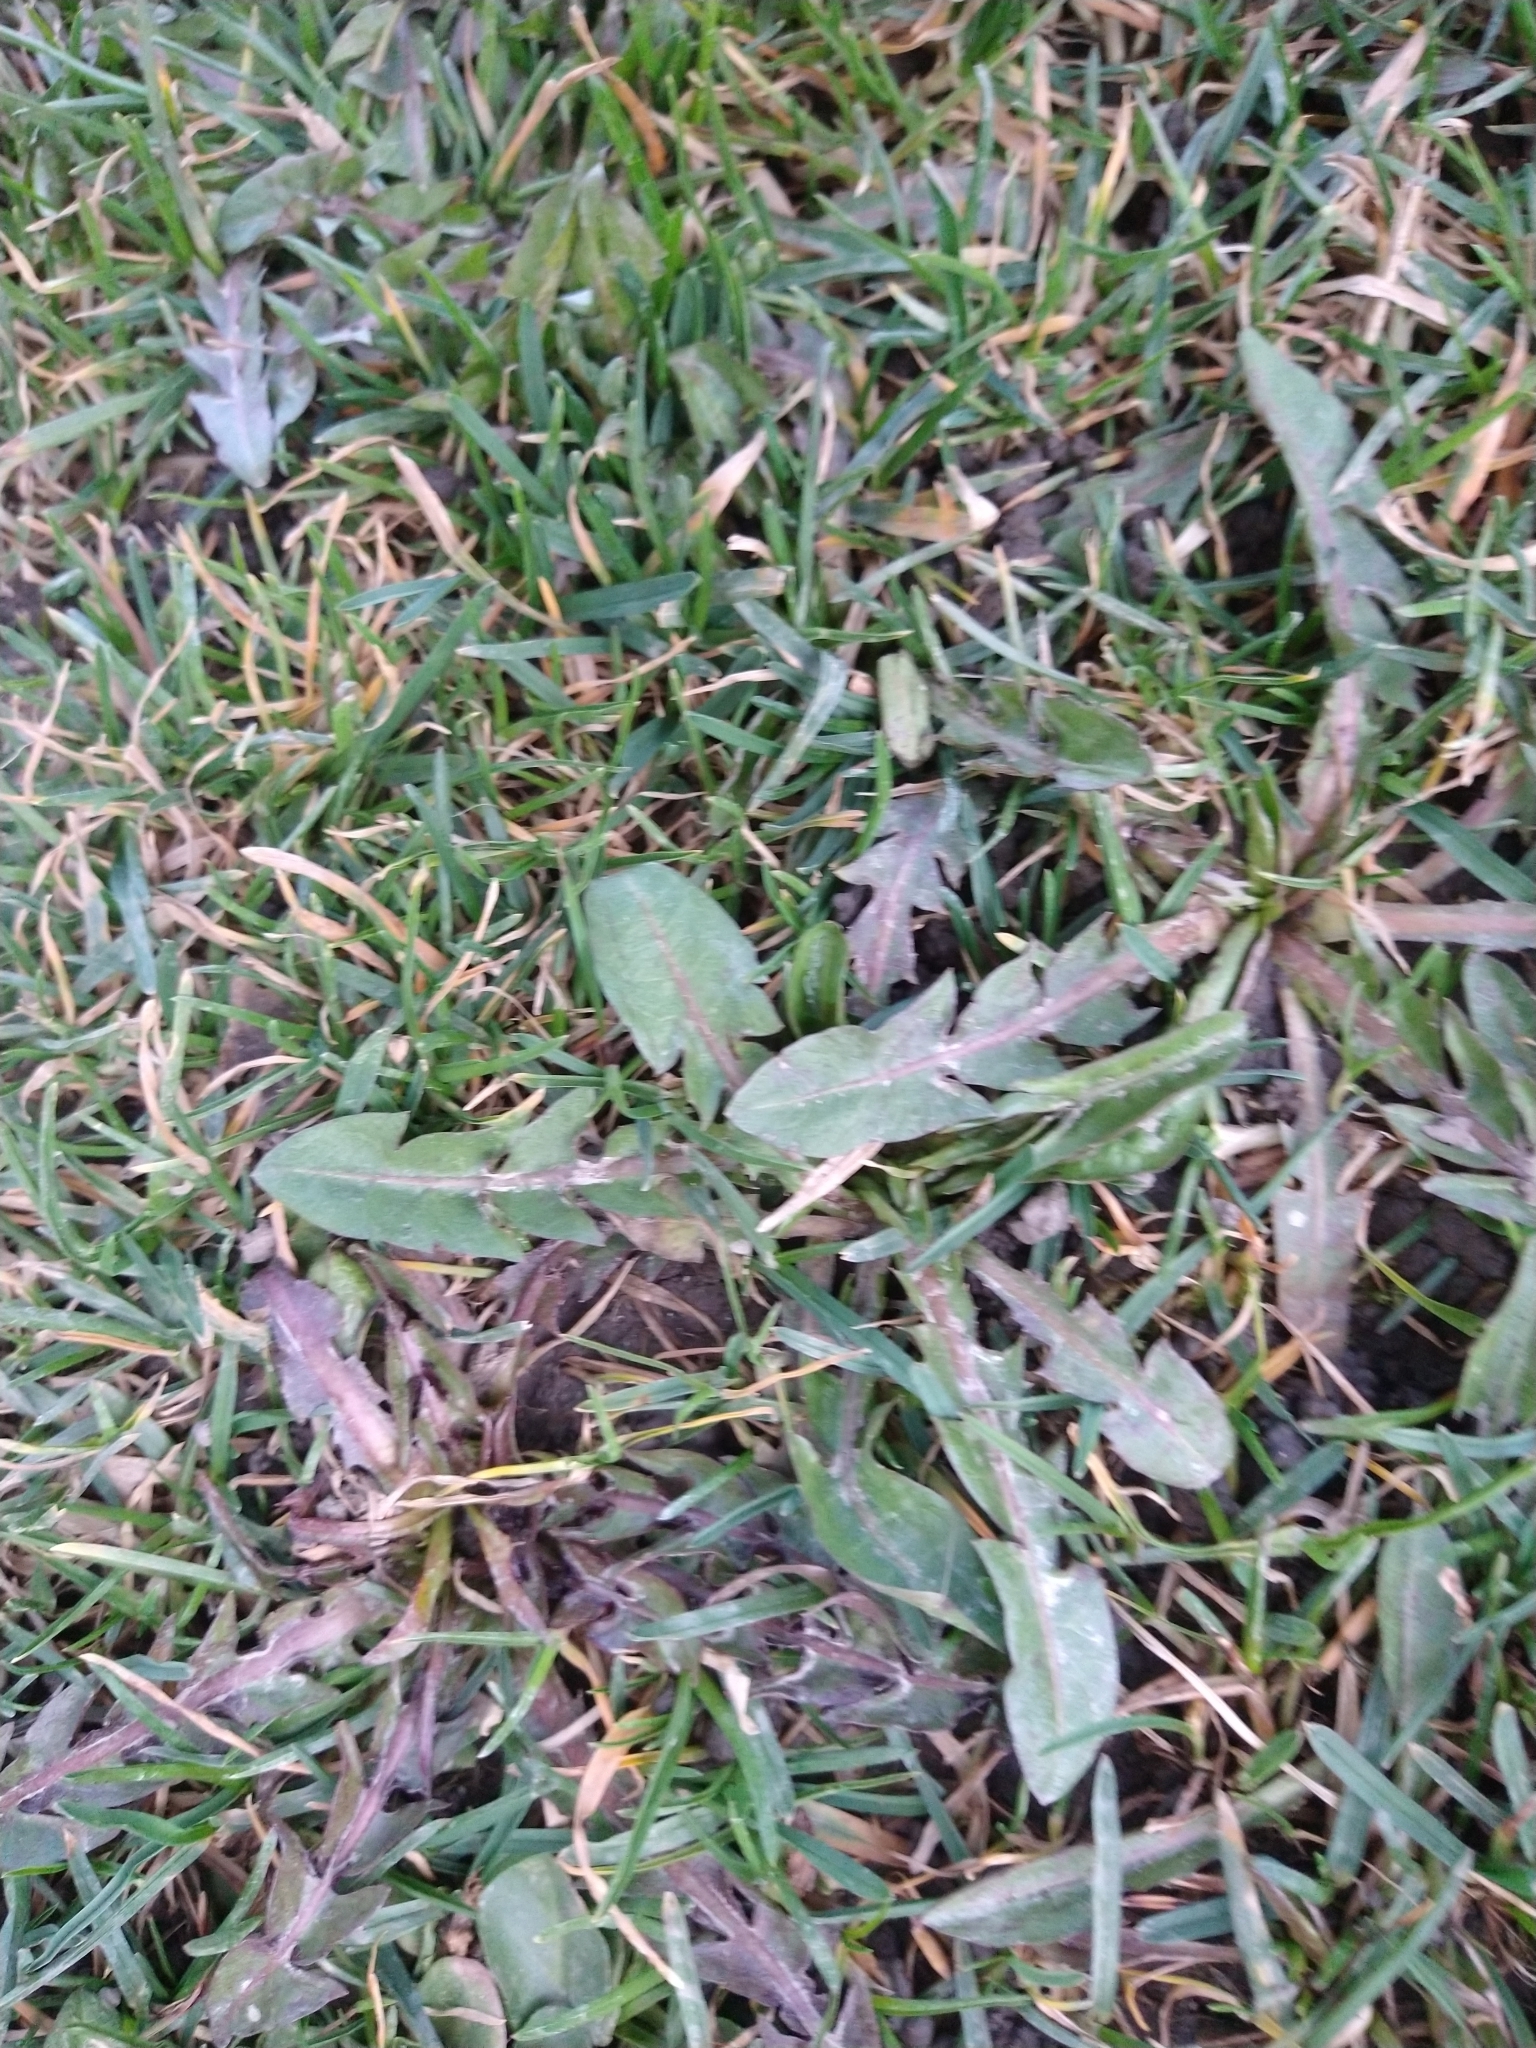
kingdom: Plantae
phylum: Tracheophyta
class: Magnoliopsida
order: Asterales
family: Asteraceae
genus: Taraxacum
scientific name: Taraxacum officinale
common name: Common dandelion
